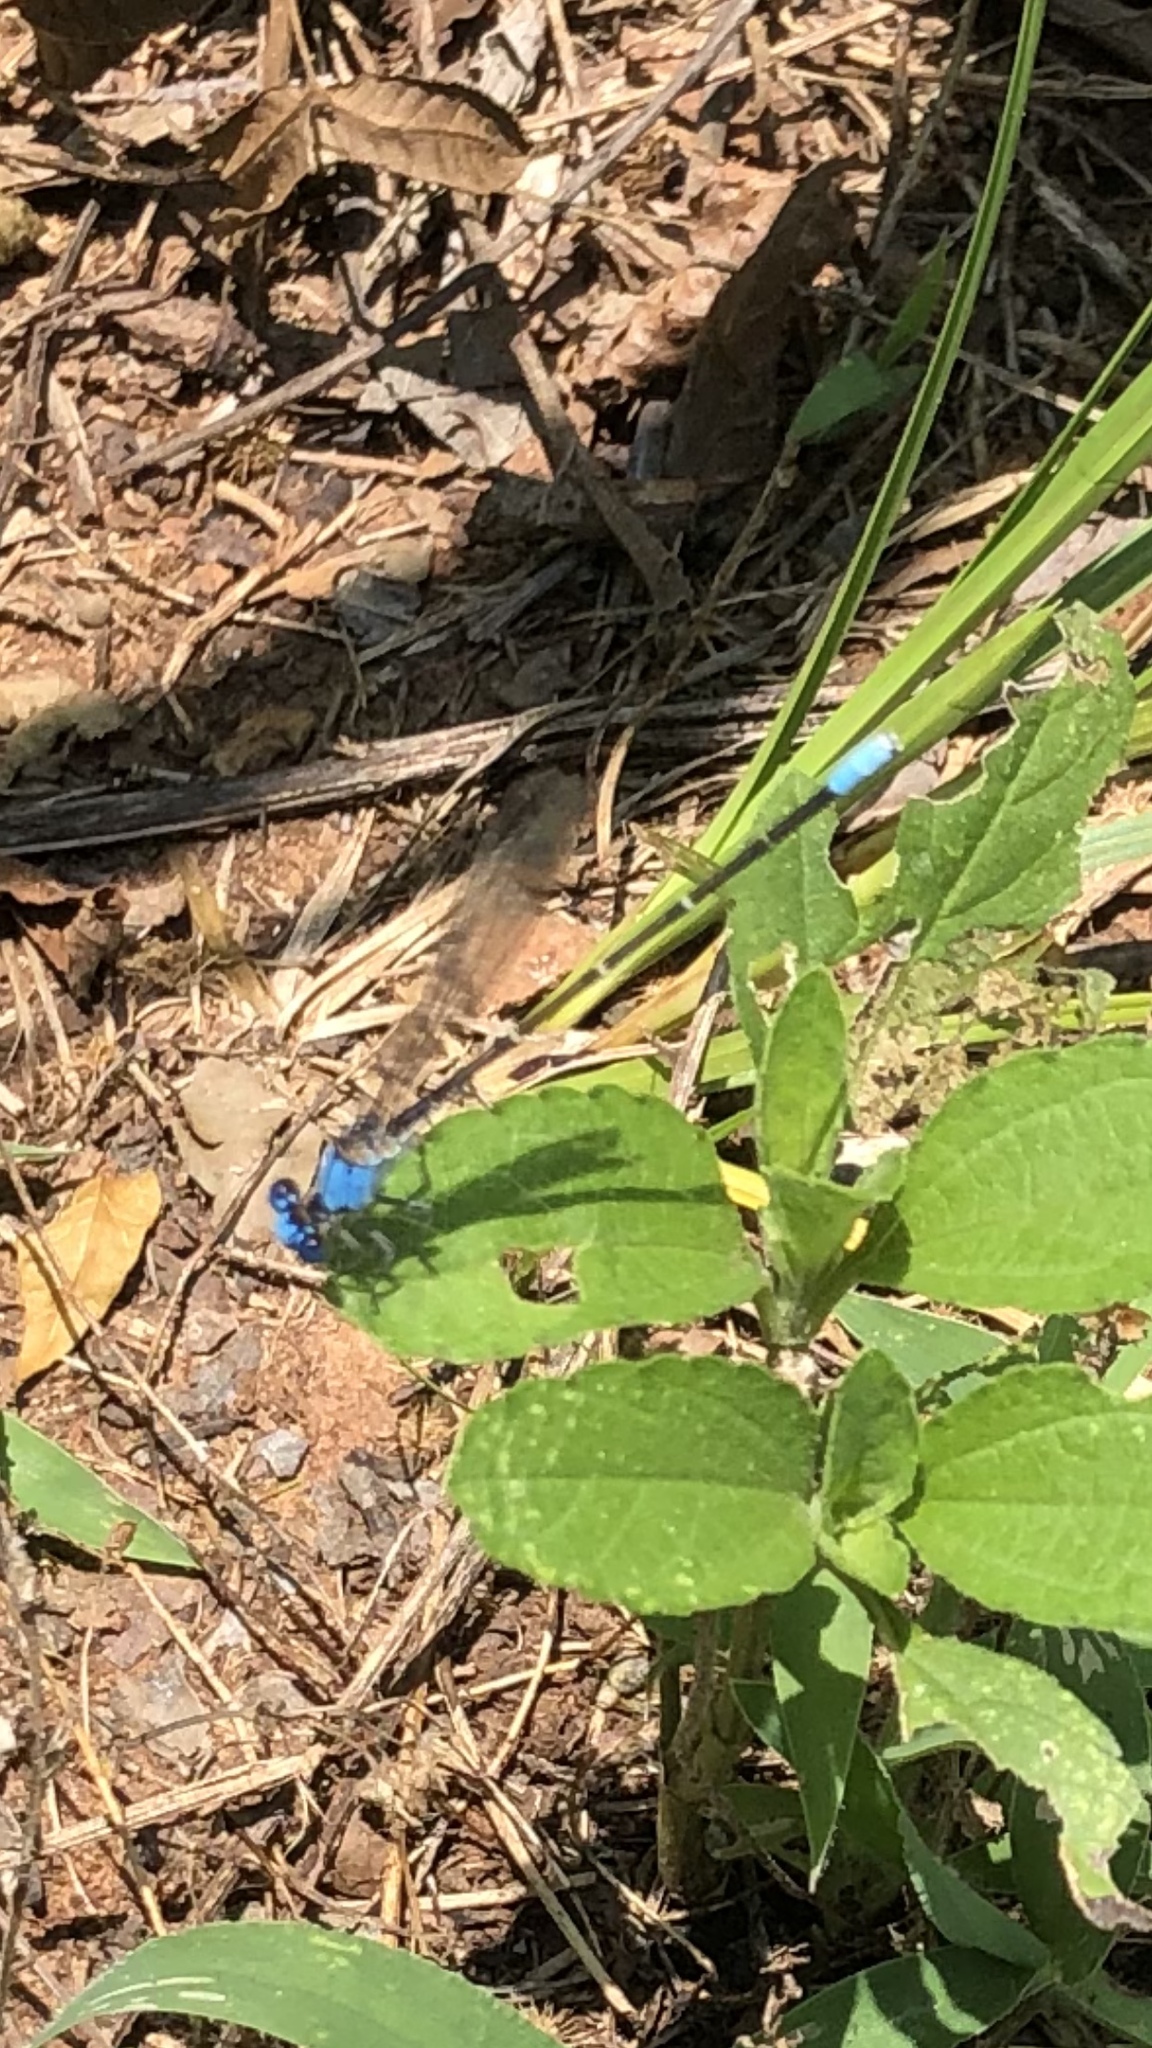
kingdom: Animalia
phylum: Arthropoda
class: Insecta
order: Odonata
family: Coenagrionidae
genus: Argia
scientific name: Argia apicalis
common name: Blue-fronted dancer
